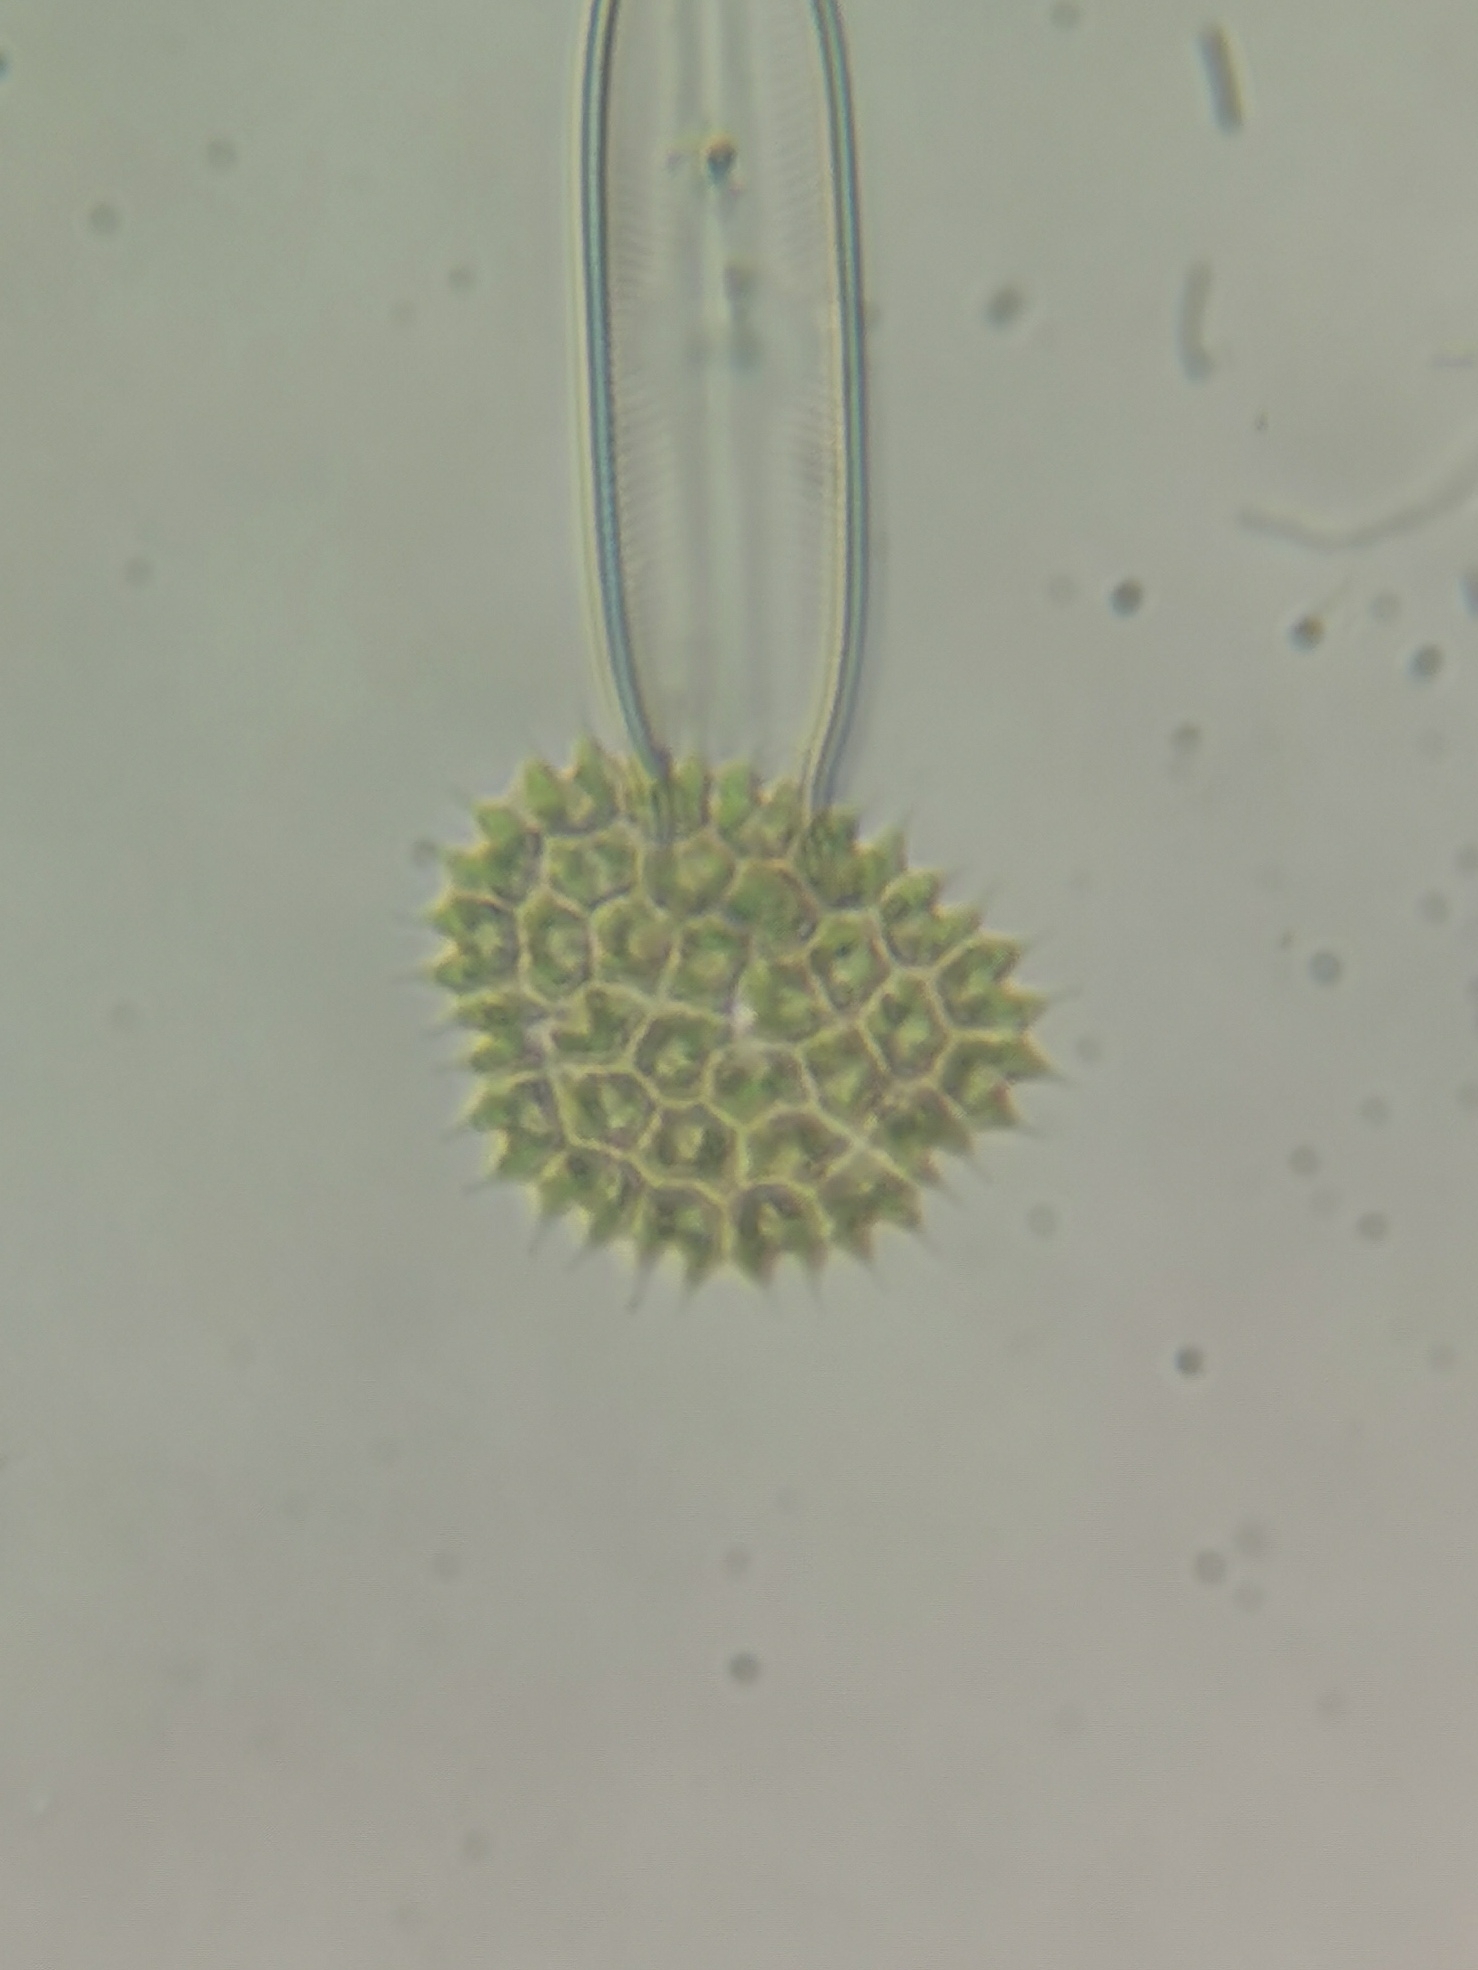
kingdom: Plantae
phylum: Chlorophyta
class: Chlorophyceae
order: Sphaeropleales
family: Hydrodictyaceae
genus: Pseudopediastrum
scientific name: Pseudopediastrum boryanum
